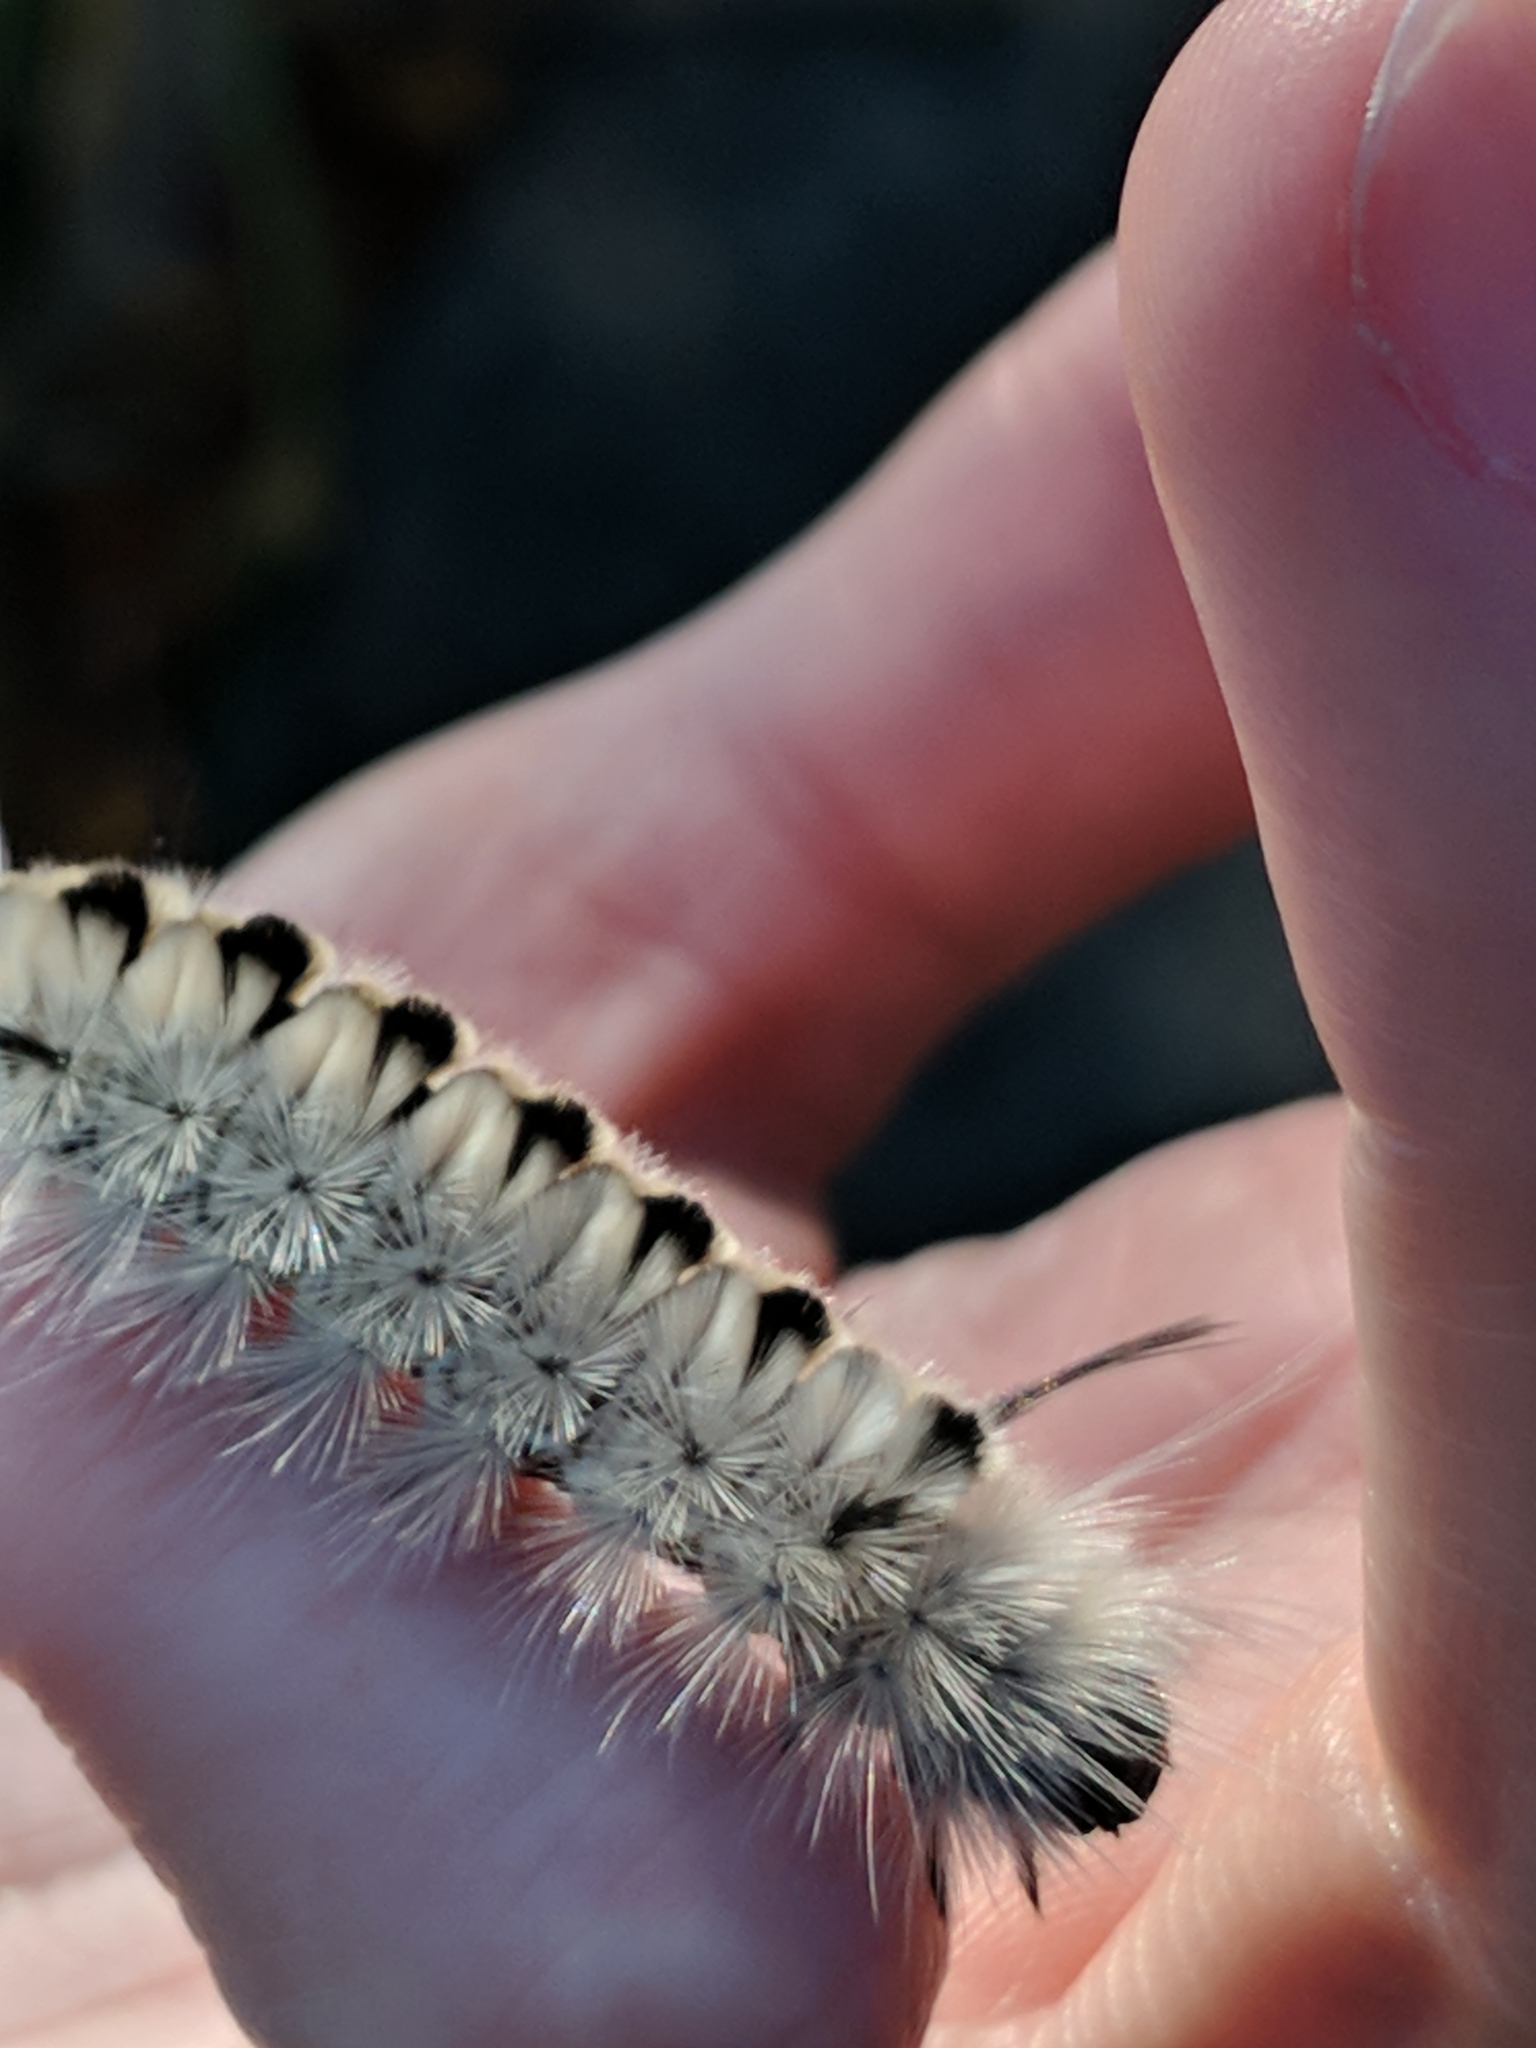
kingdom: Animalia
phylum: Arthropoda
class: Insecta
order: Lepidoptera
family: Erebidae
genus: Lophocampa
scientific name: Lophocampa caryae
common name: Hickory tussock moth
